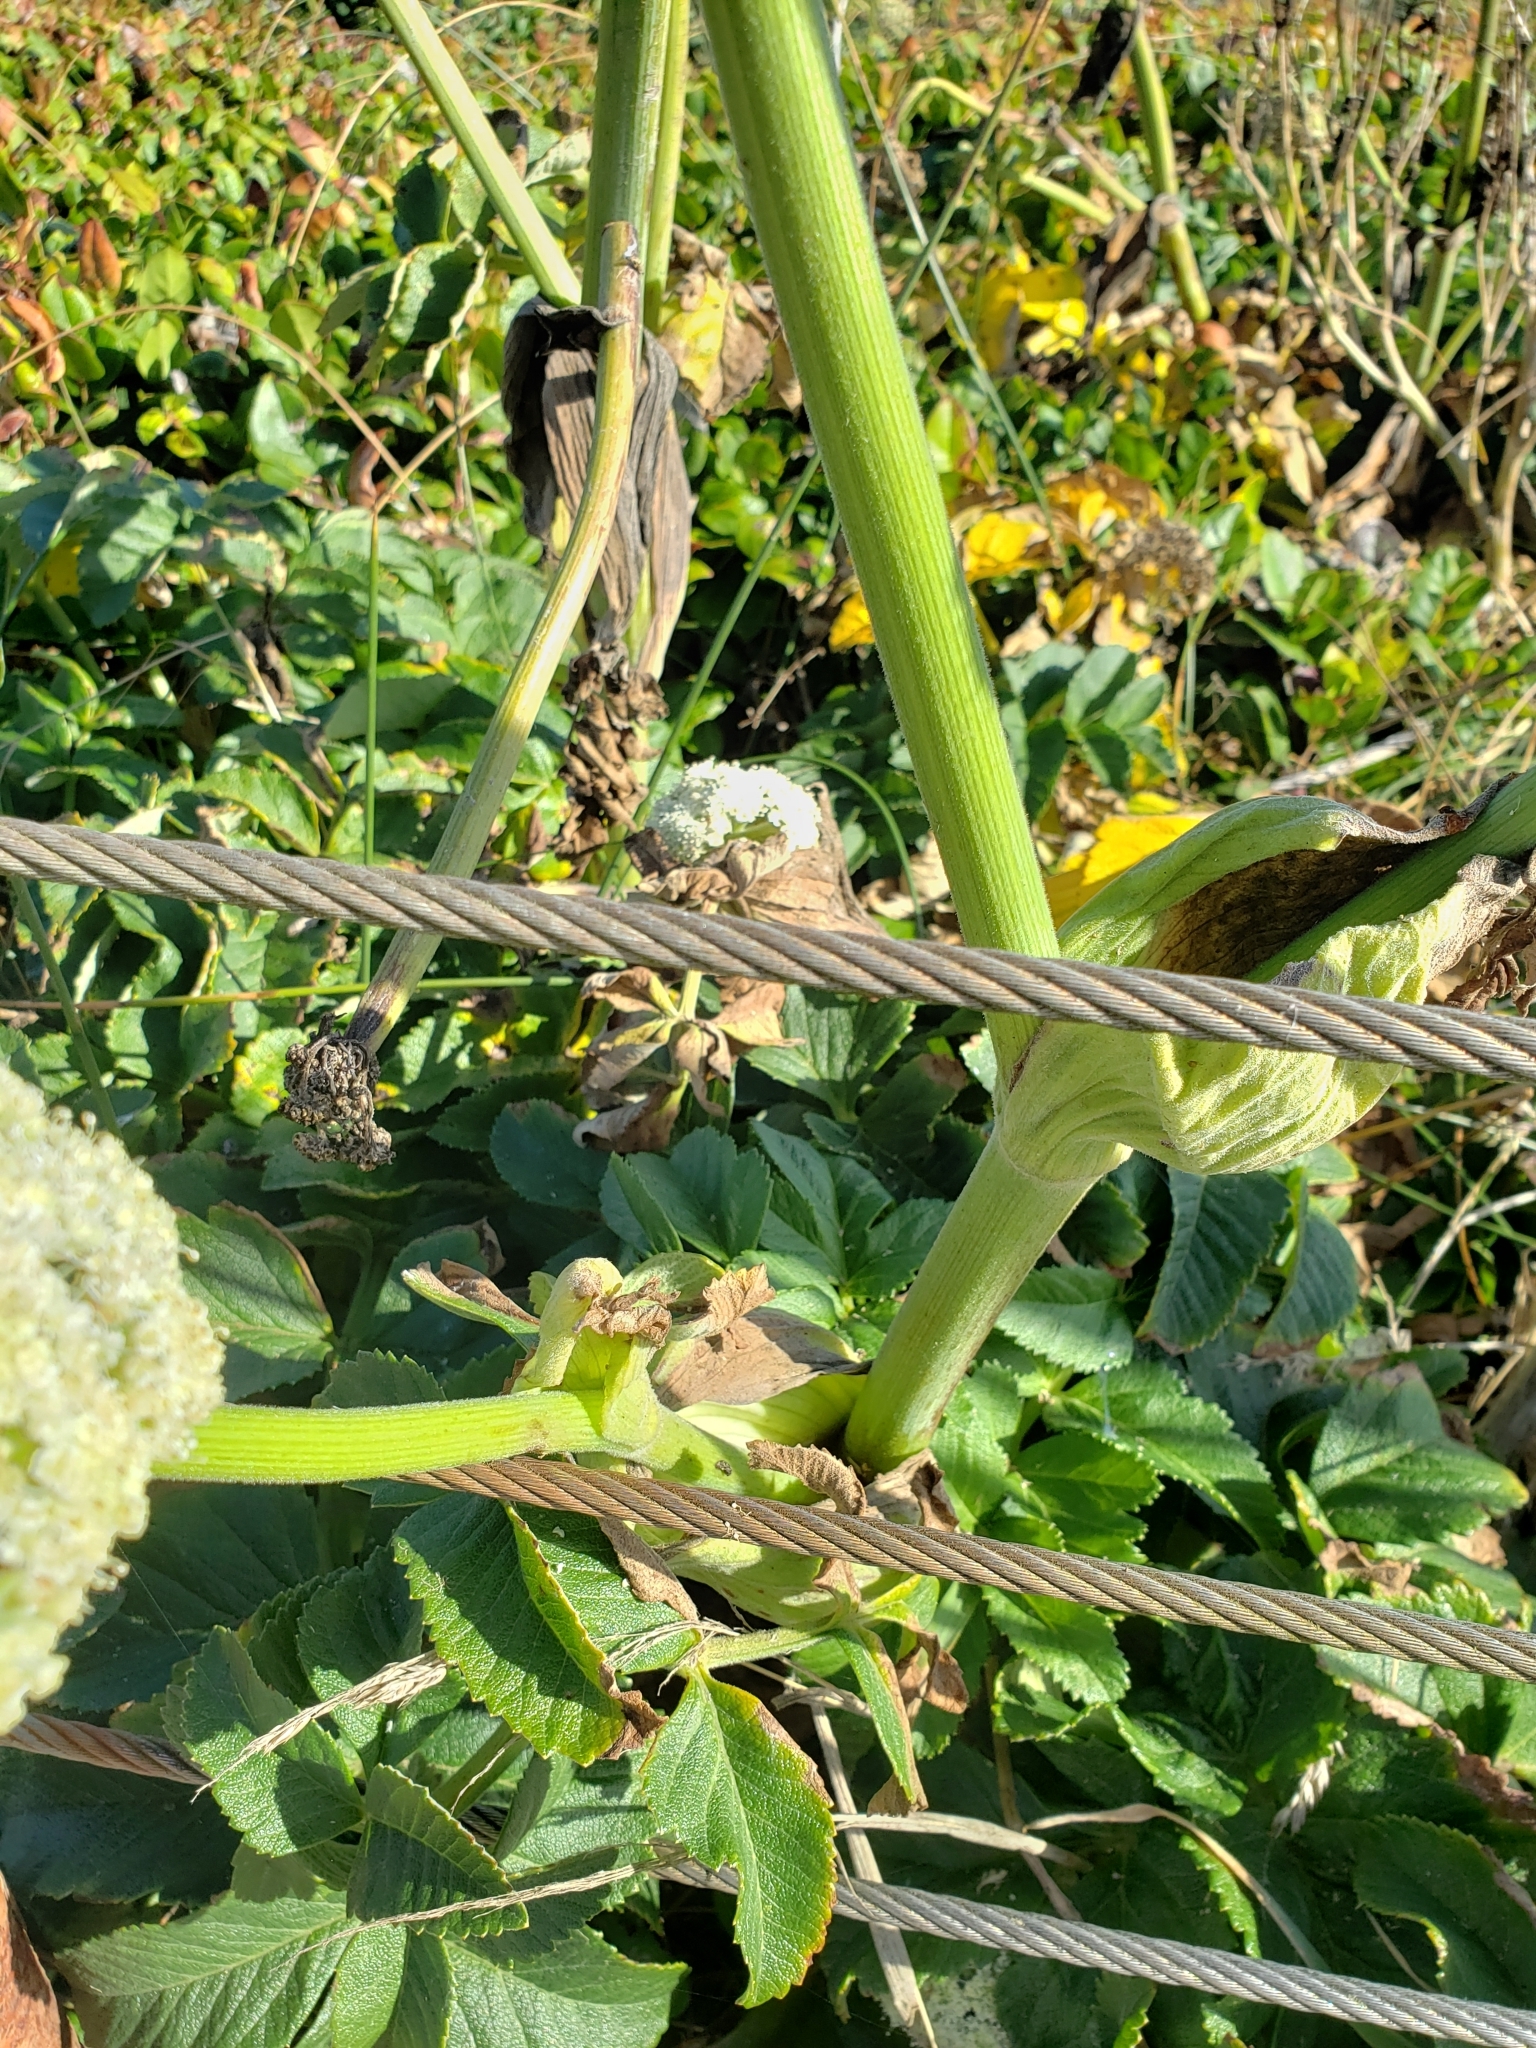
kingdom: Plantae
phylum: Tracheophyta
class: Magnoliopsida
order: Apiales
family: Apiaceae
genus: Angelica
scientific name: Angelica hendersonii
